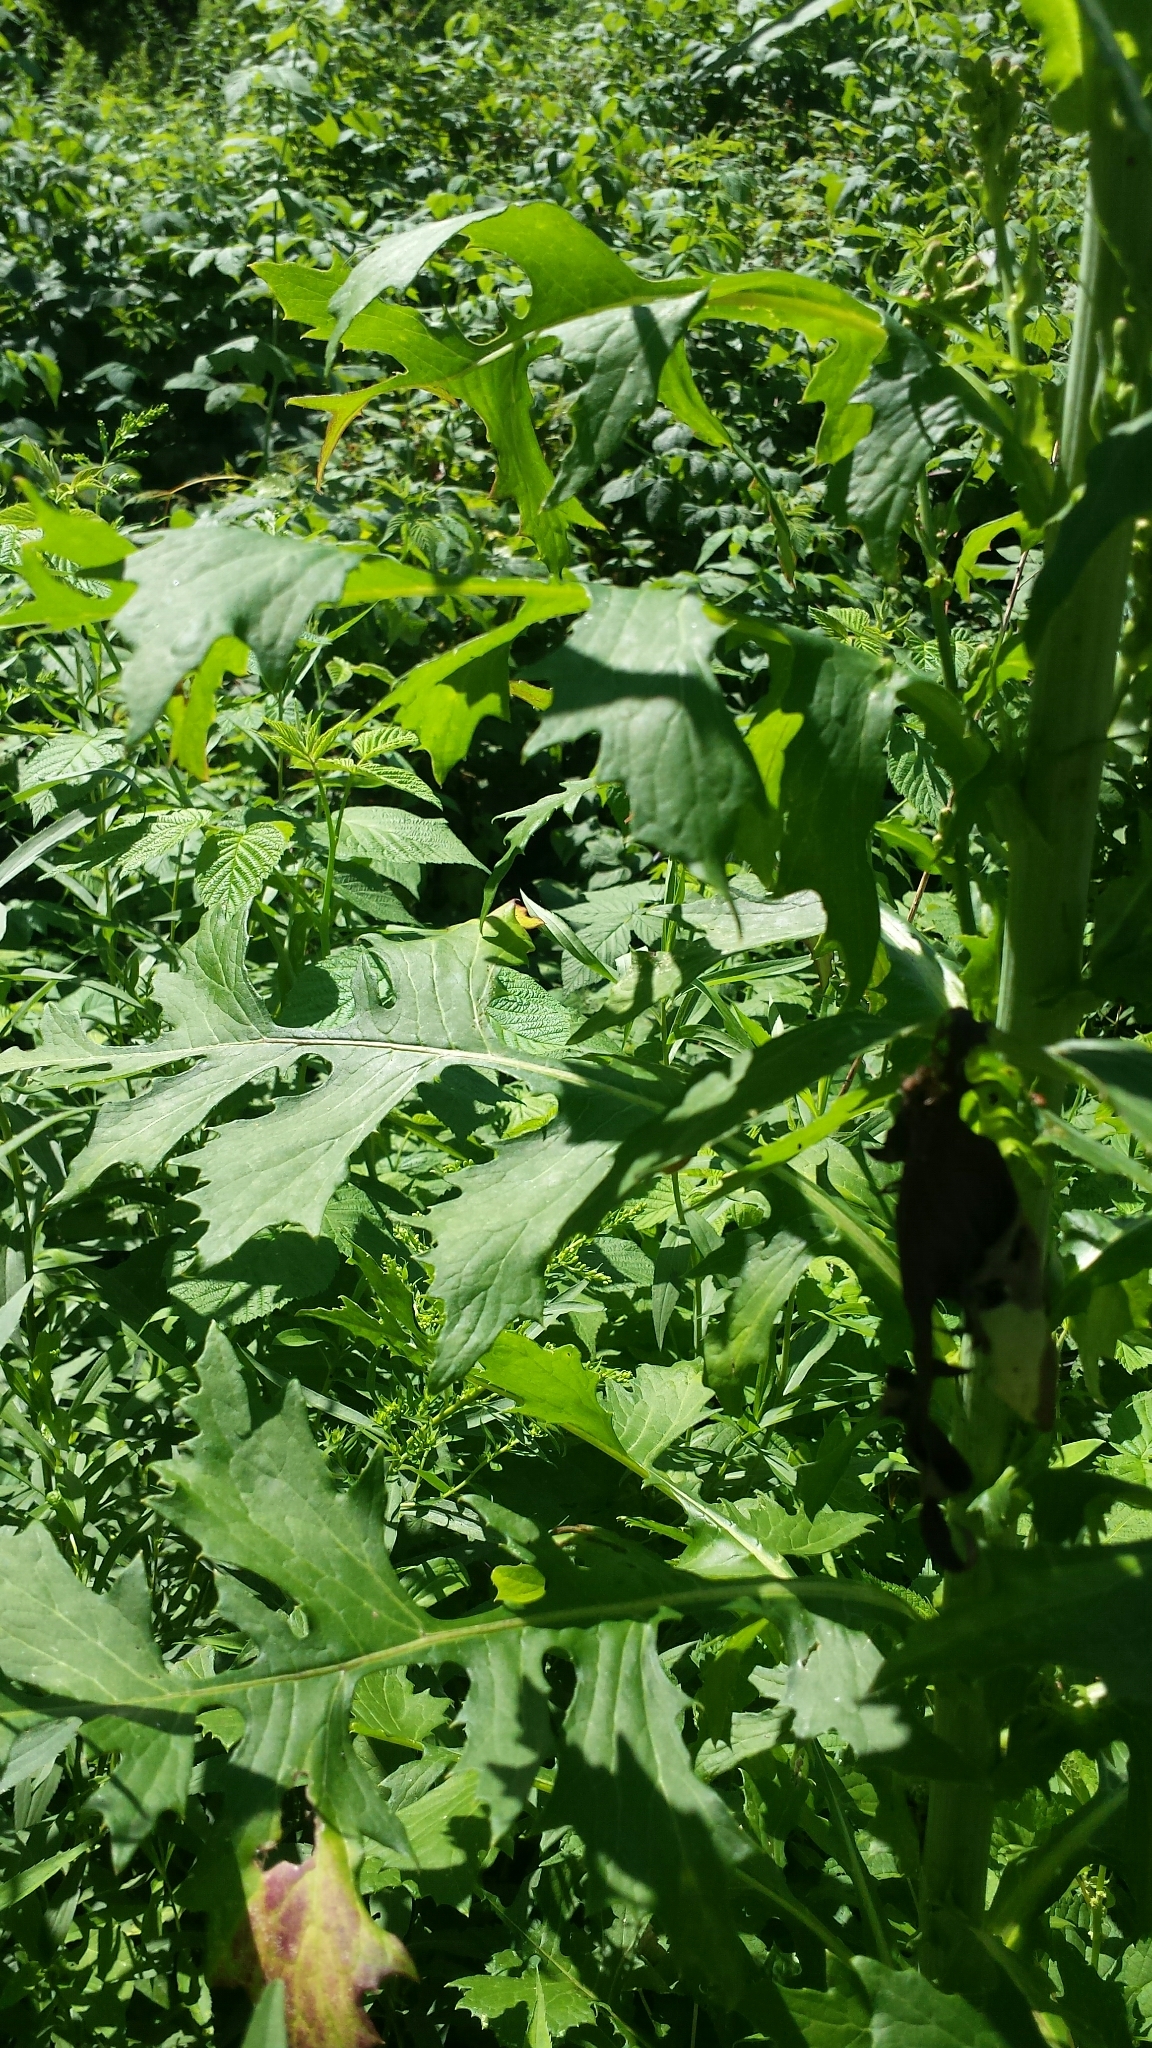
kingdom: Plantae
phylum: Tracheophyta
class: Magnoliopsida
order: Asterales
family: Asteraceae
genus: Lactuca
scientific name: Lactuca biennis
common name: Blue wood lettuce
